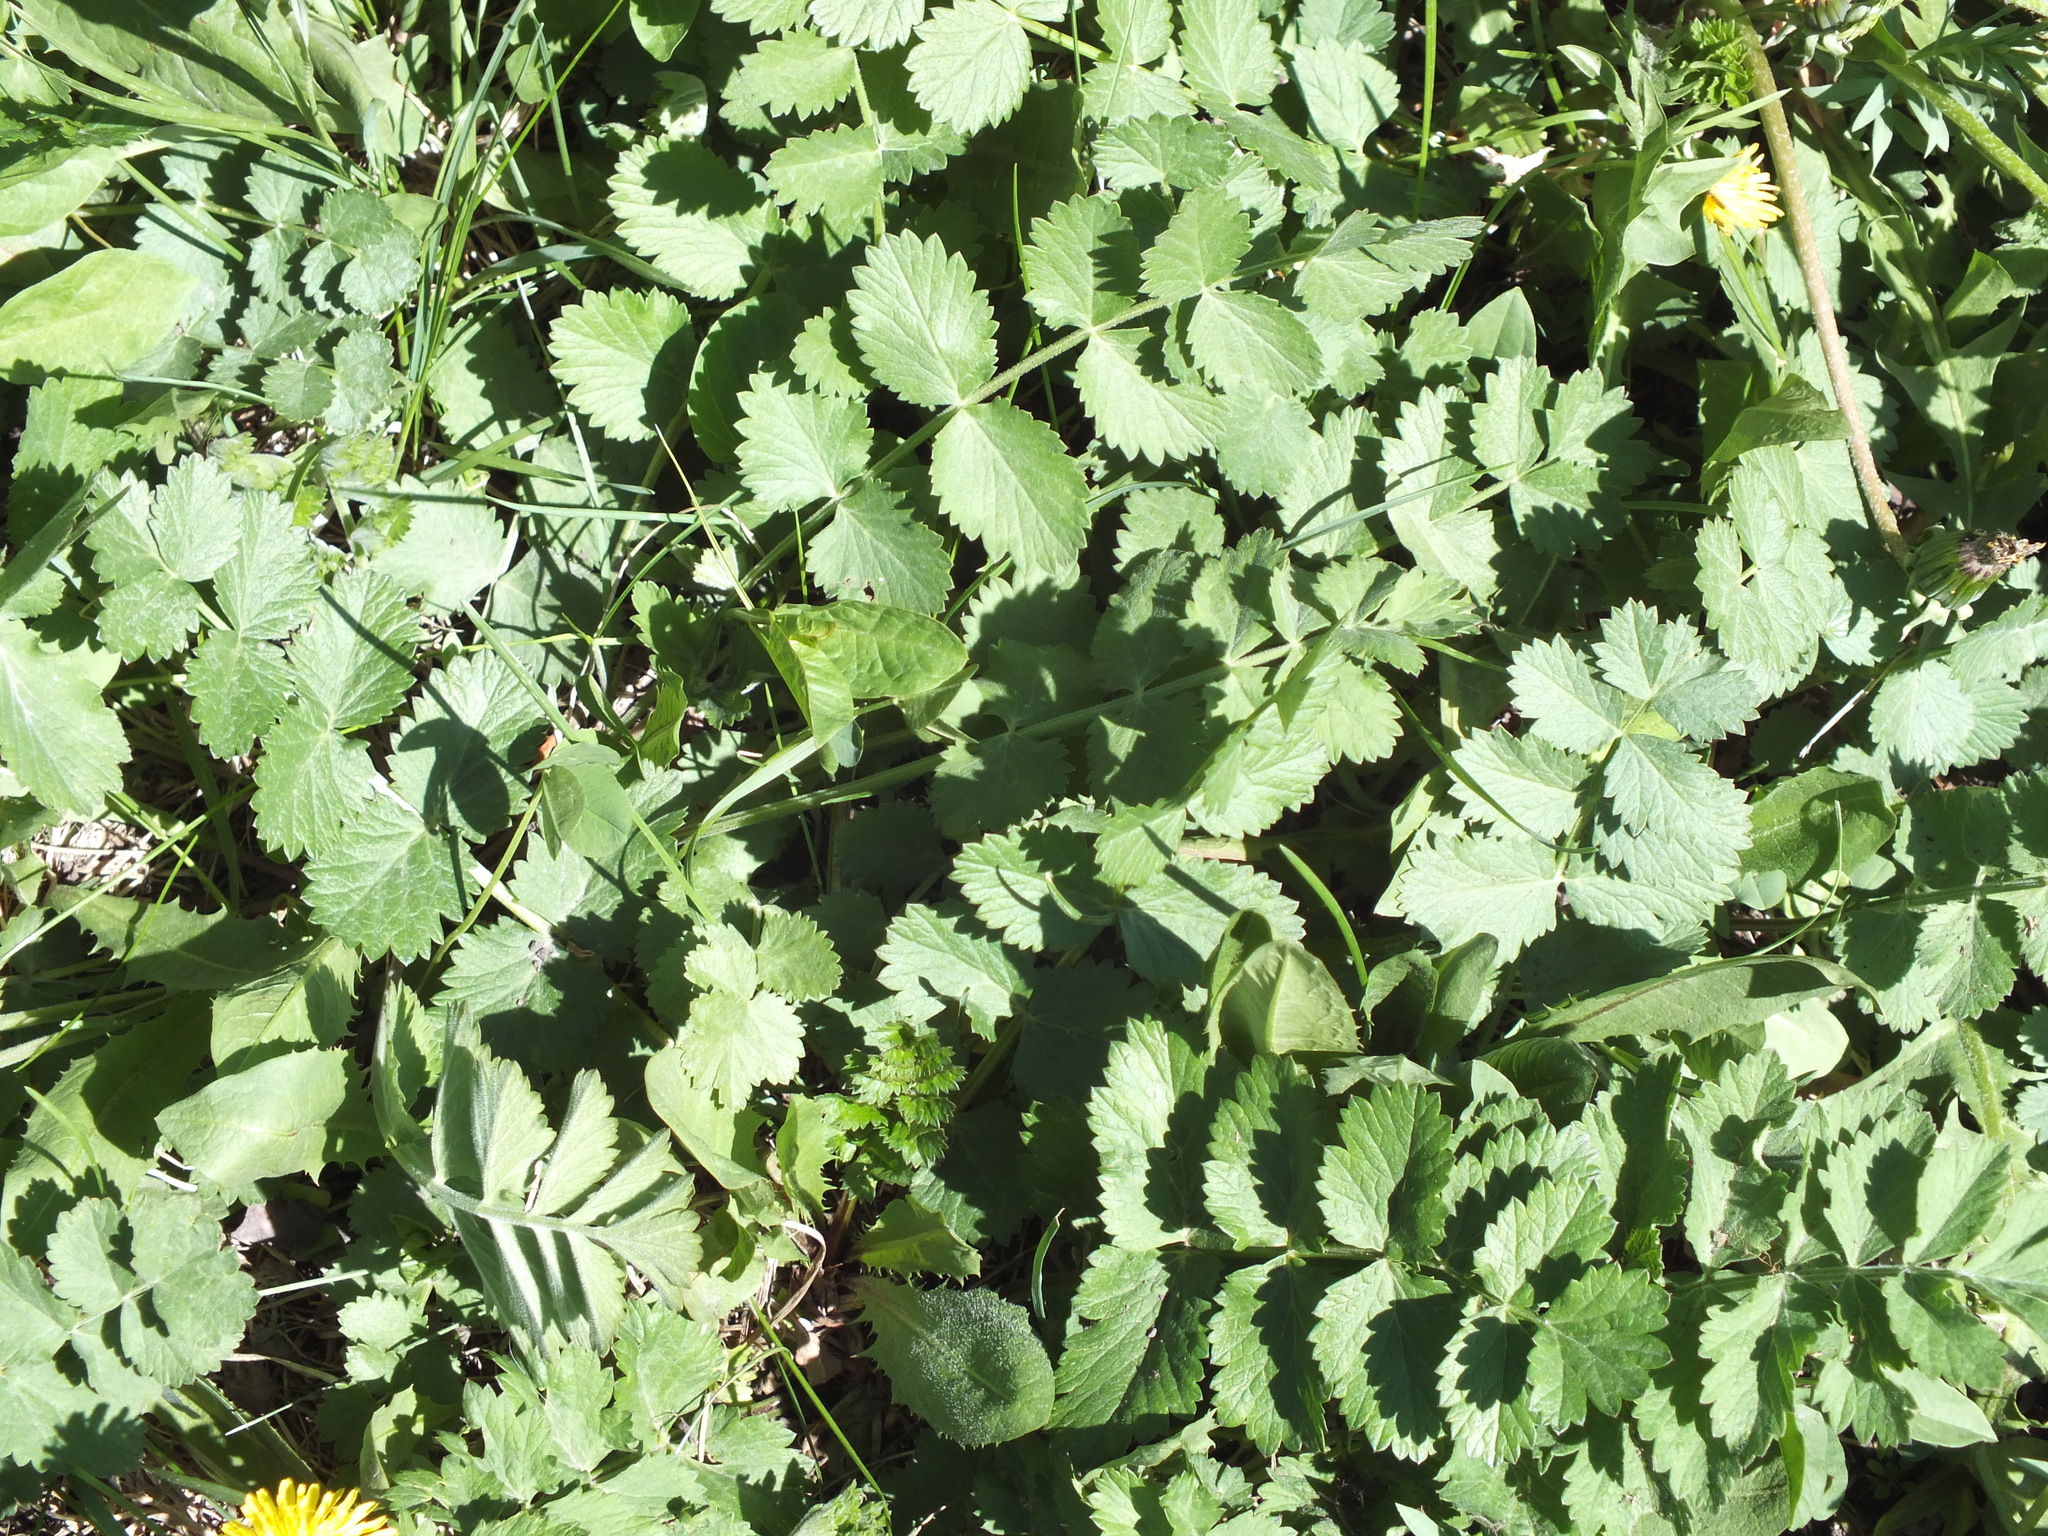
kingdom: Plantae
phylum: Tracheophyta
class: Magnoliopsida
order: Apiales
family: Apiaceae
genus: Pimpinella
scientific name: Pimpinella saxifraga
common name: Burnet-saxifrage
